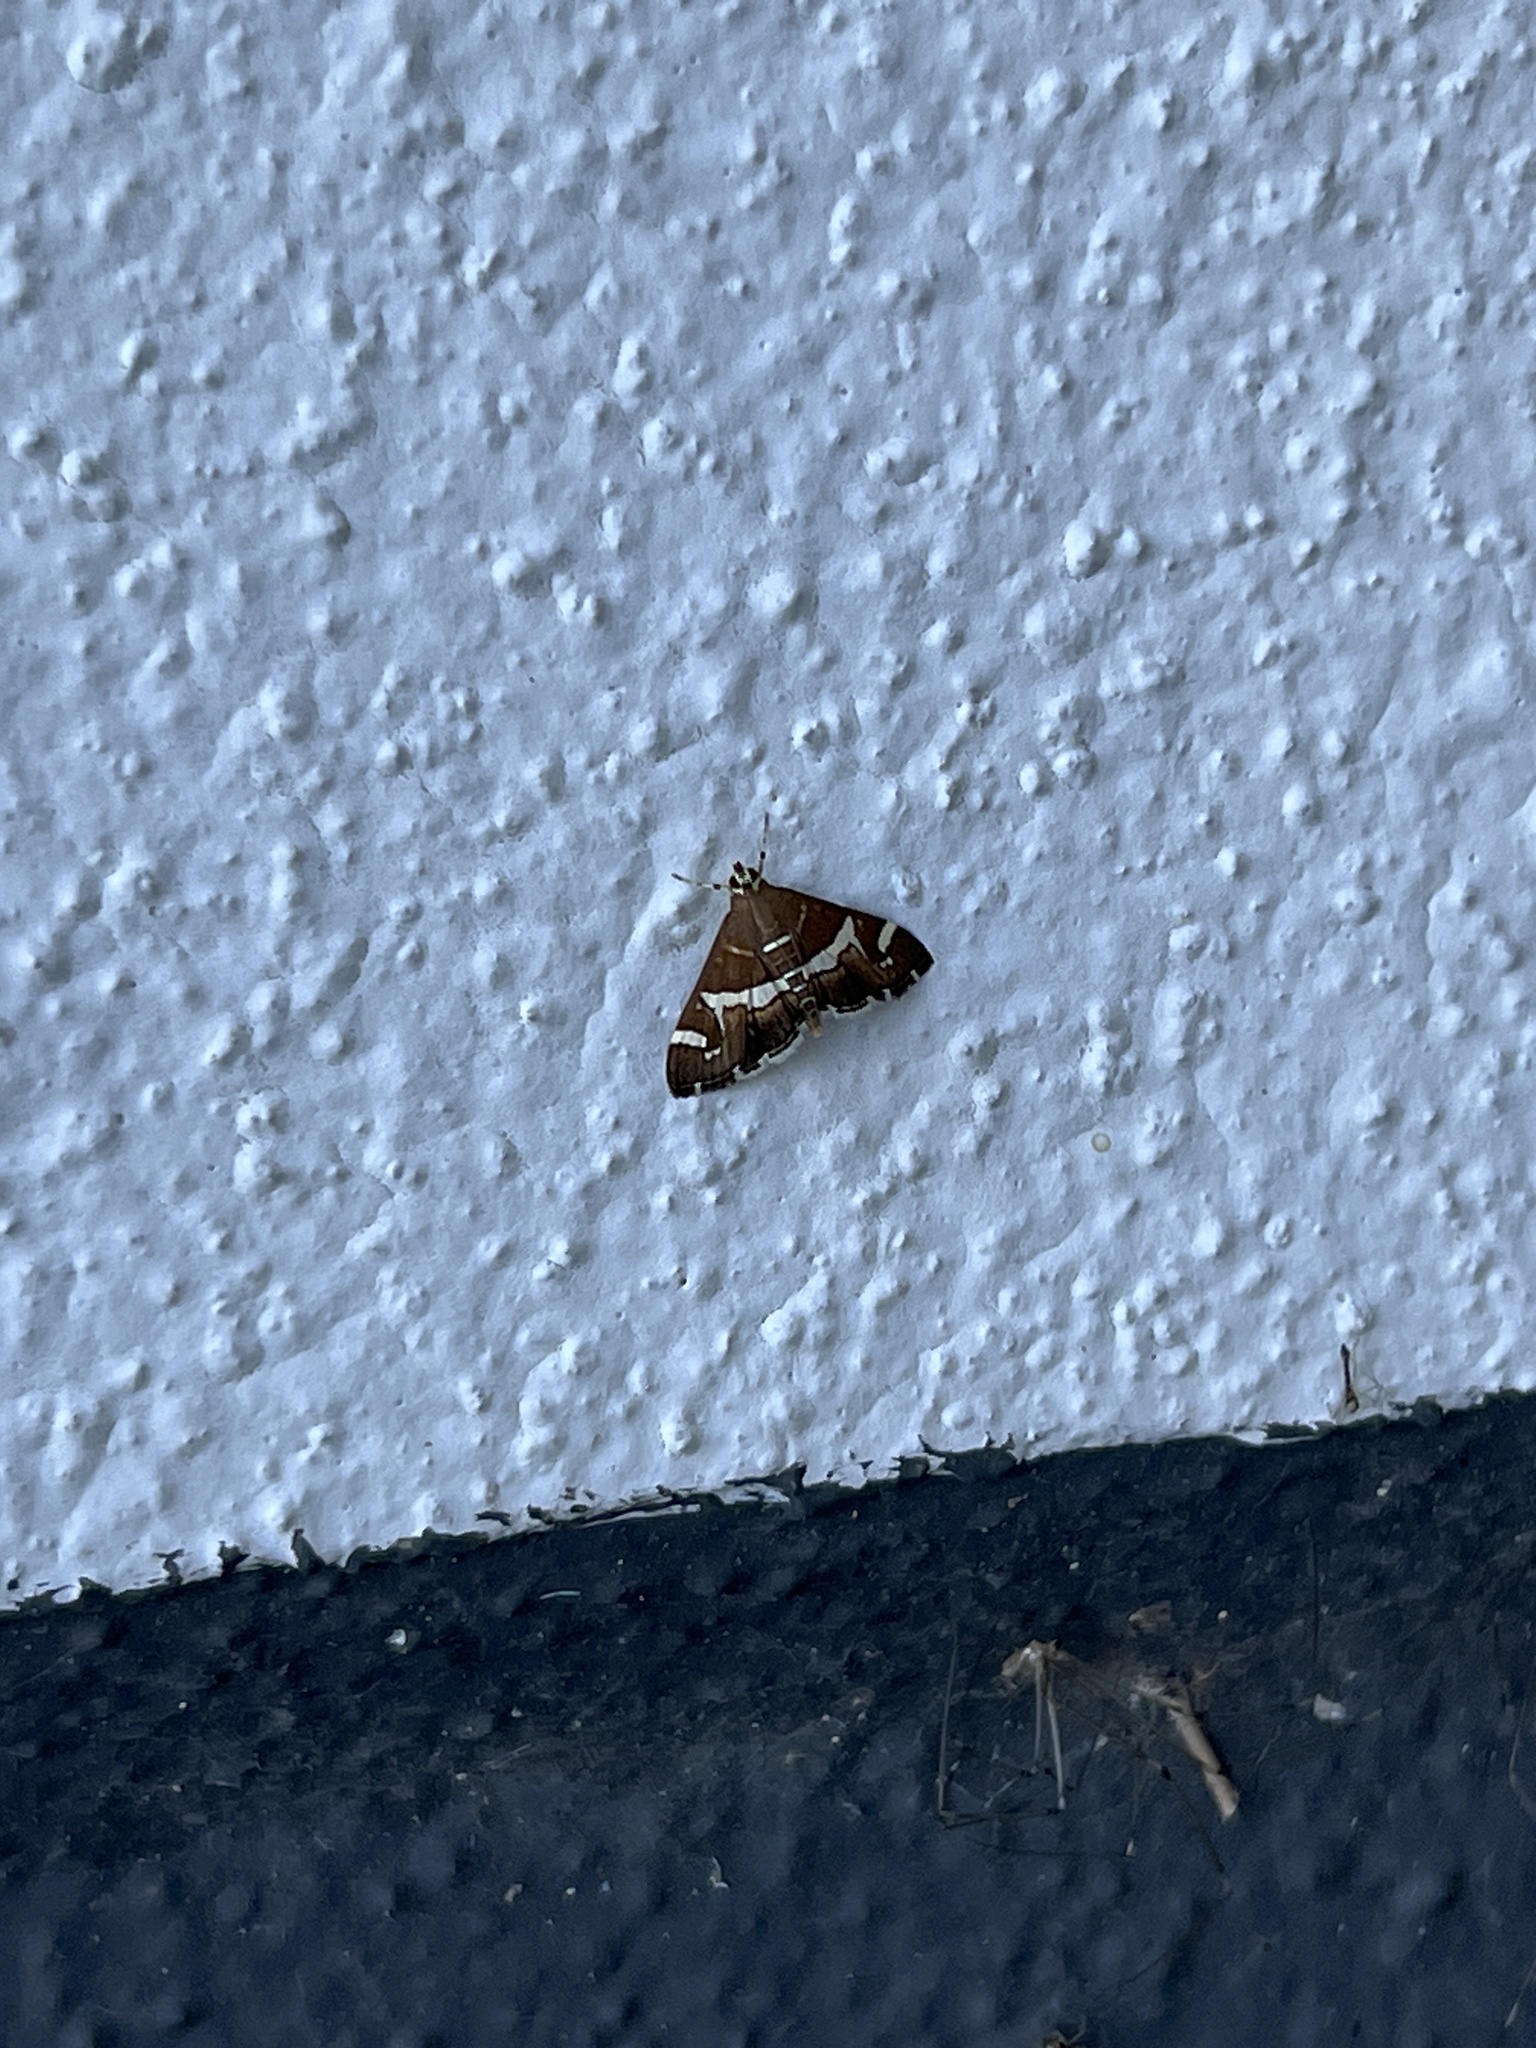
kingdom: Animalia
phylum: Arthropoda
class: Insecta
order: Lepidoptera
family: Crambidae
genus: Spoladea
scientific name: Spoladea recurvalis
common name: Beet webworm moth
